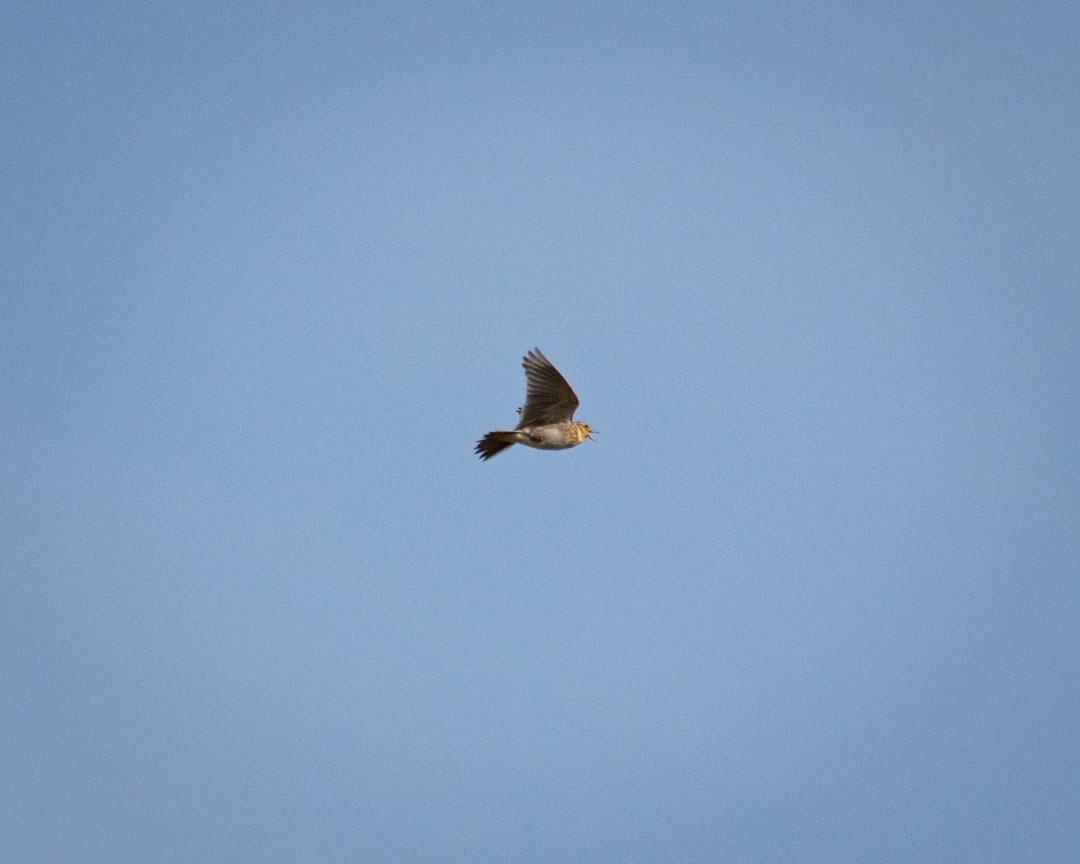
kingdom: Animalia
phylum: Chordata
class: Aves
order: Passeriformes
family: Alaudidae
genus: Alauda
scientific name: Alauda arvensis
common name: Eurasian skylark
